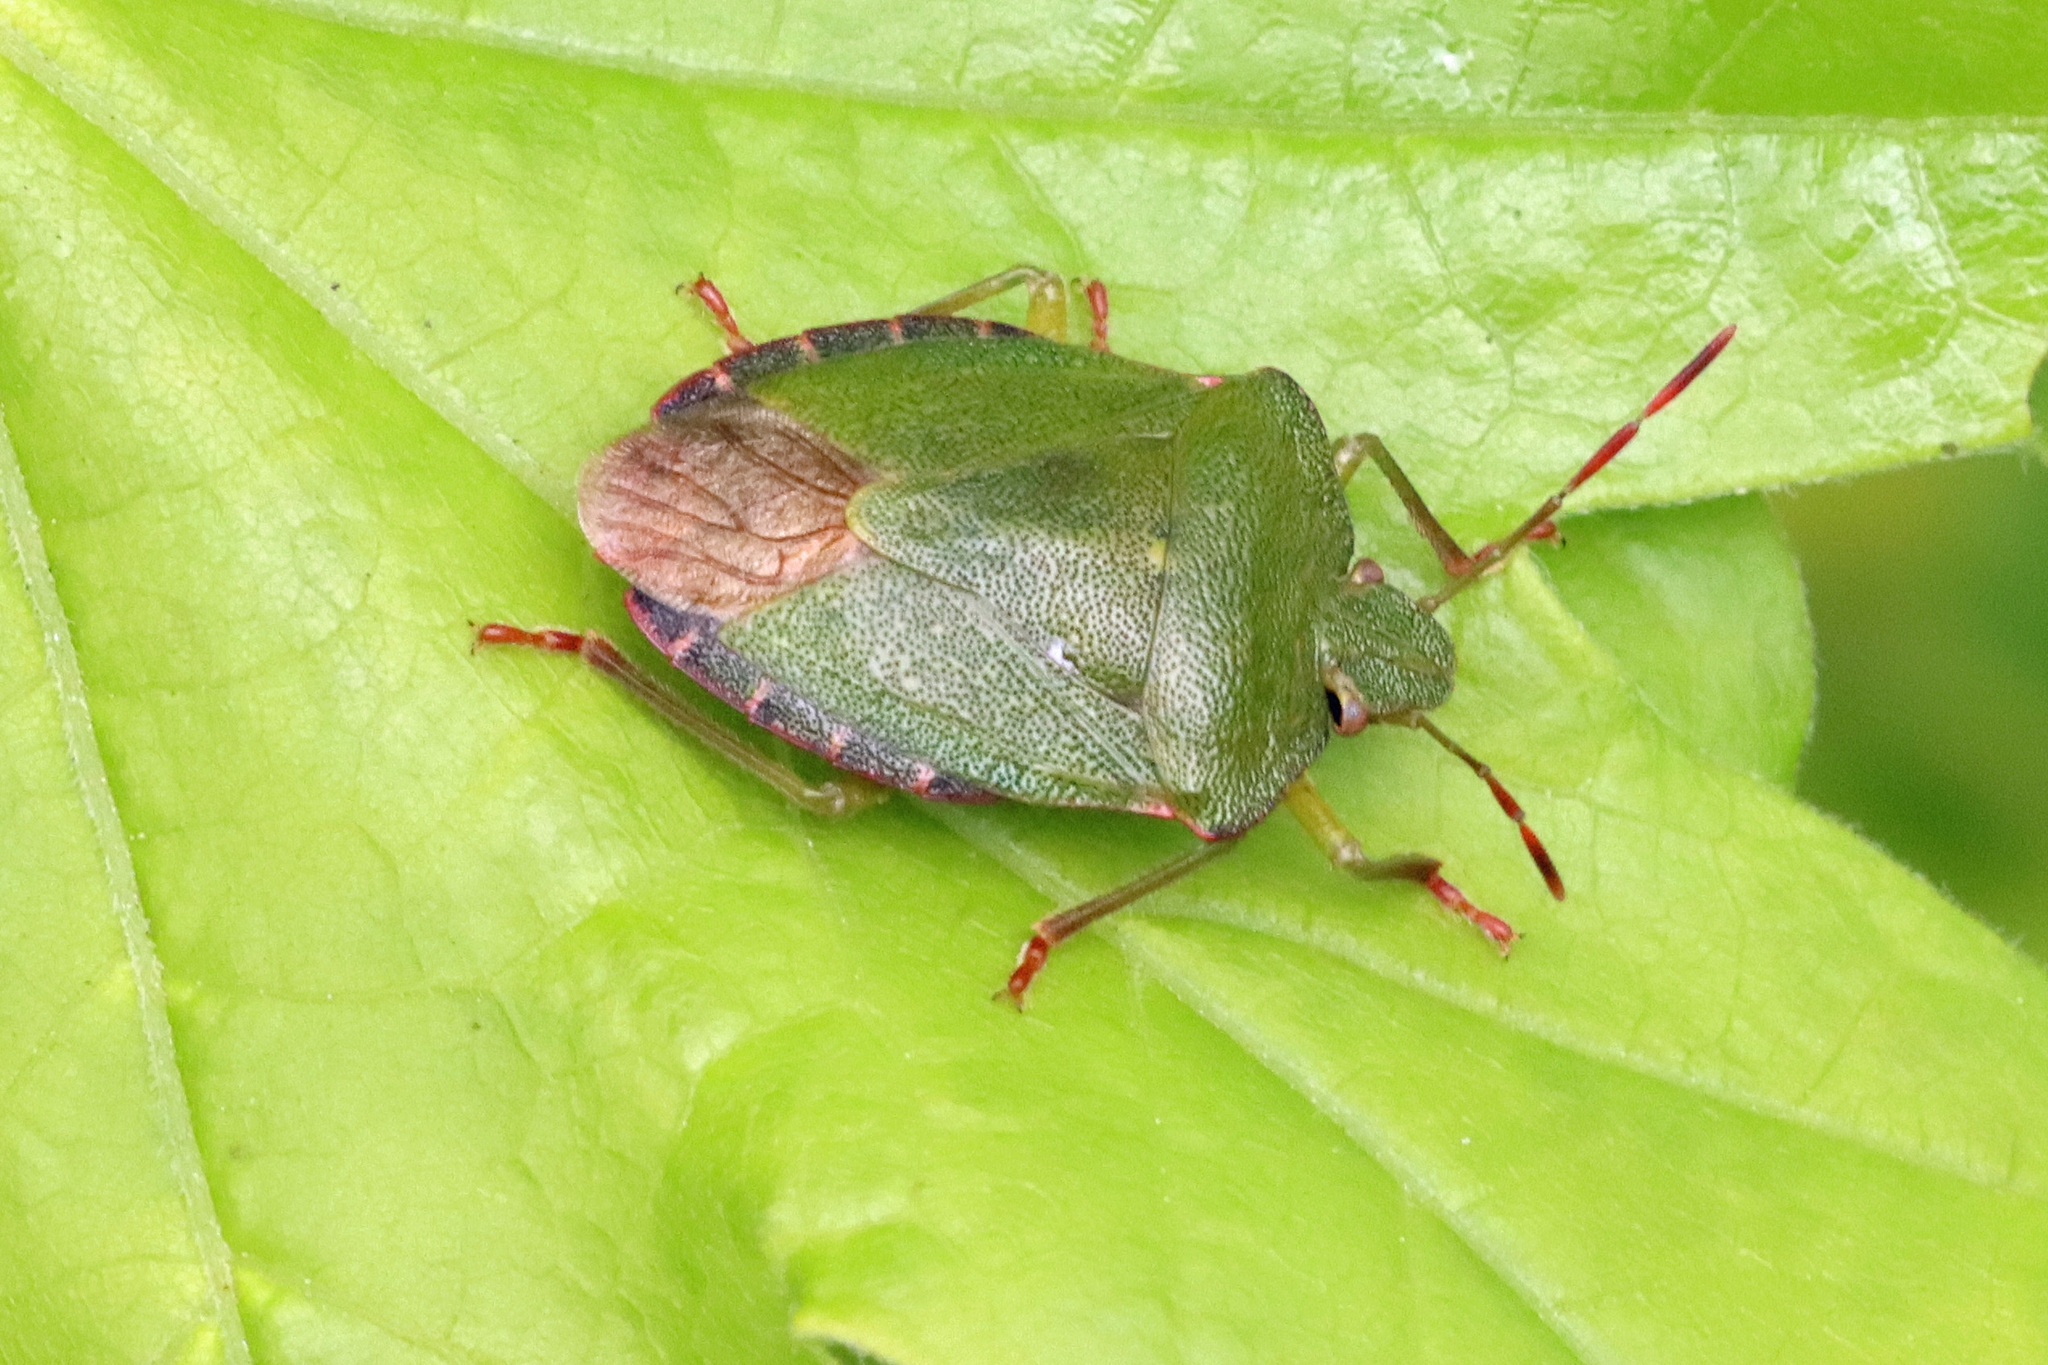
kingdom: Animalia
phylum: Arthropoda
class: Insecta
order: Hemiptera
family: Pentatomidae
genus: Palomena
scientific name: Palomena prasina
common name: Green shieldbug
